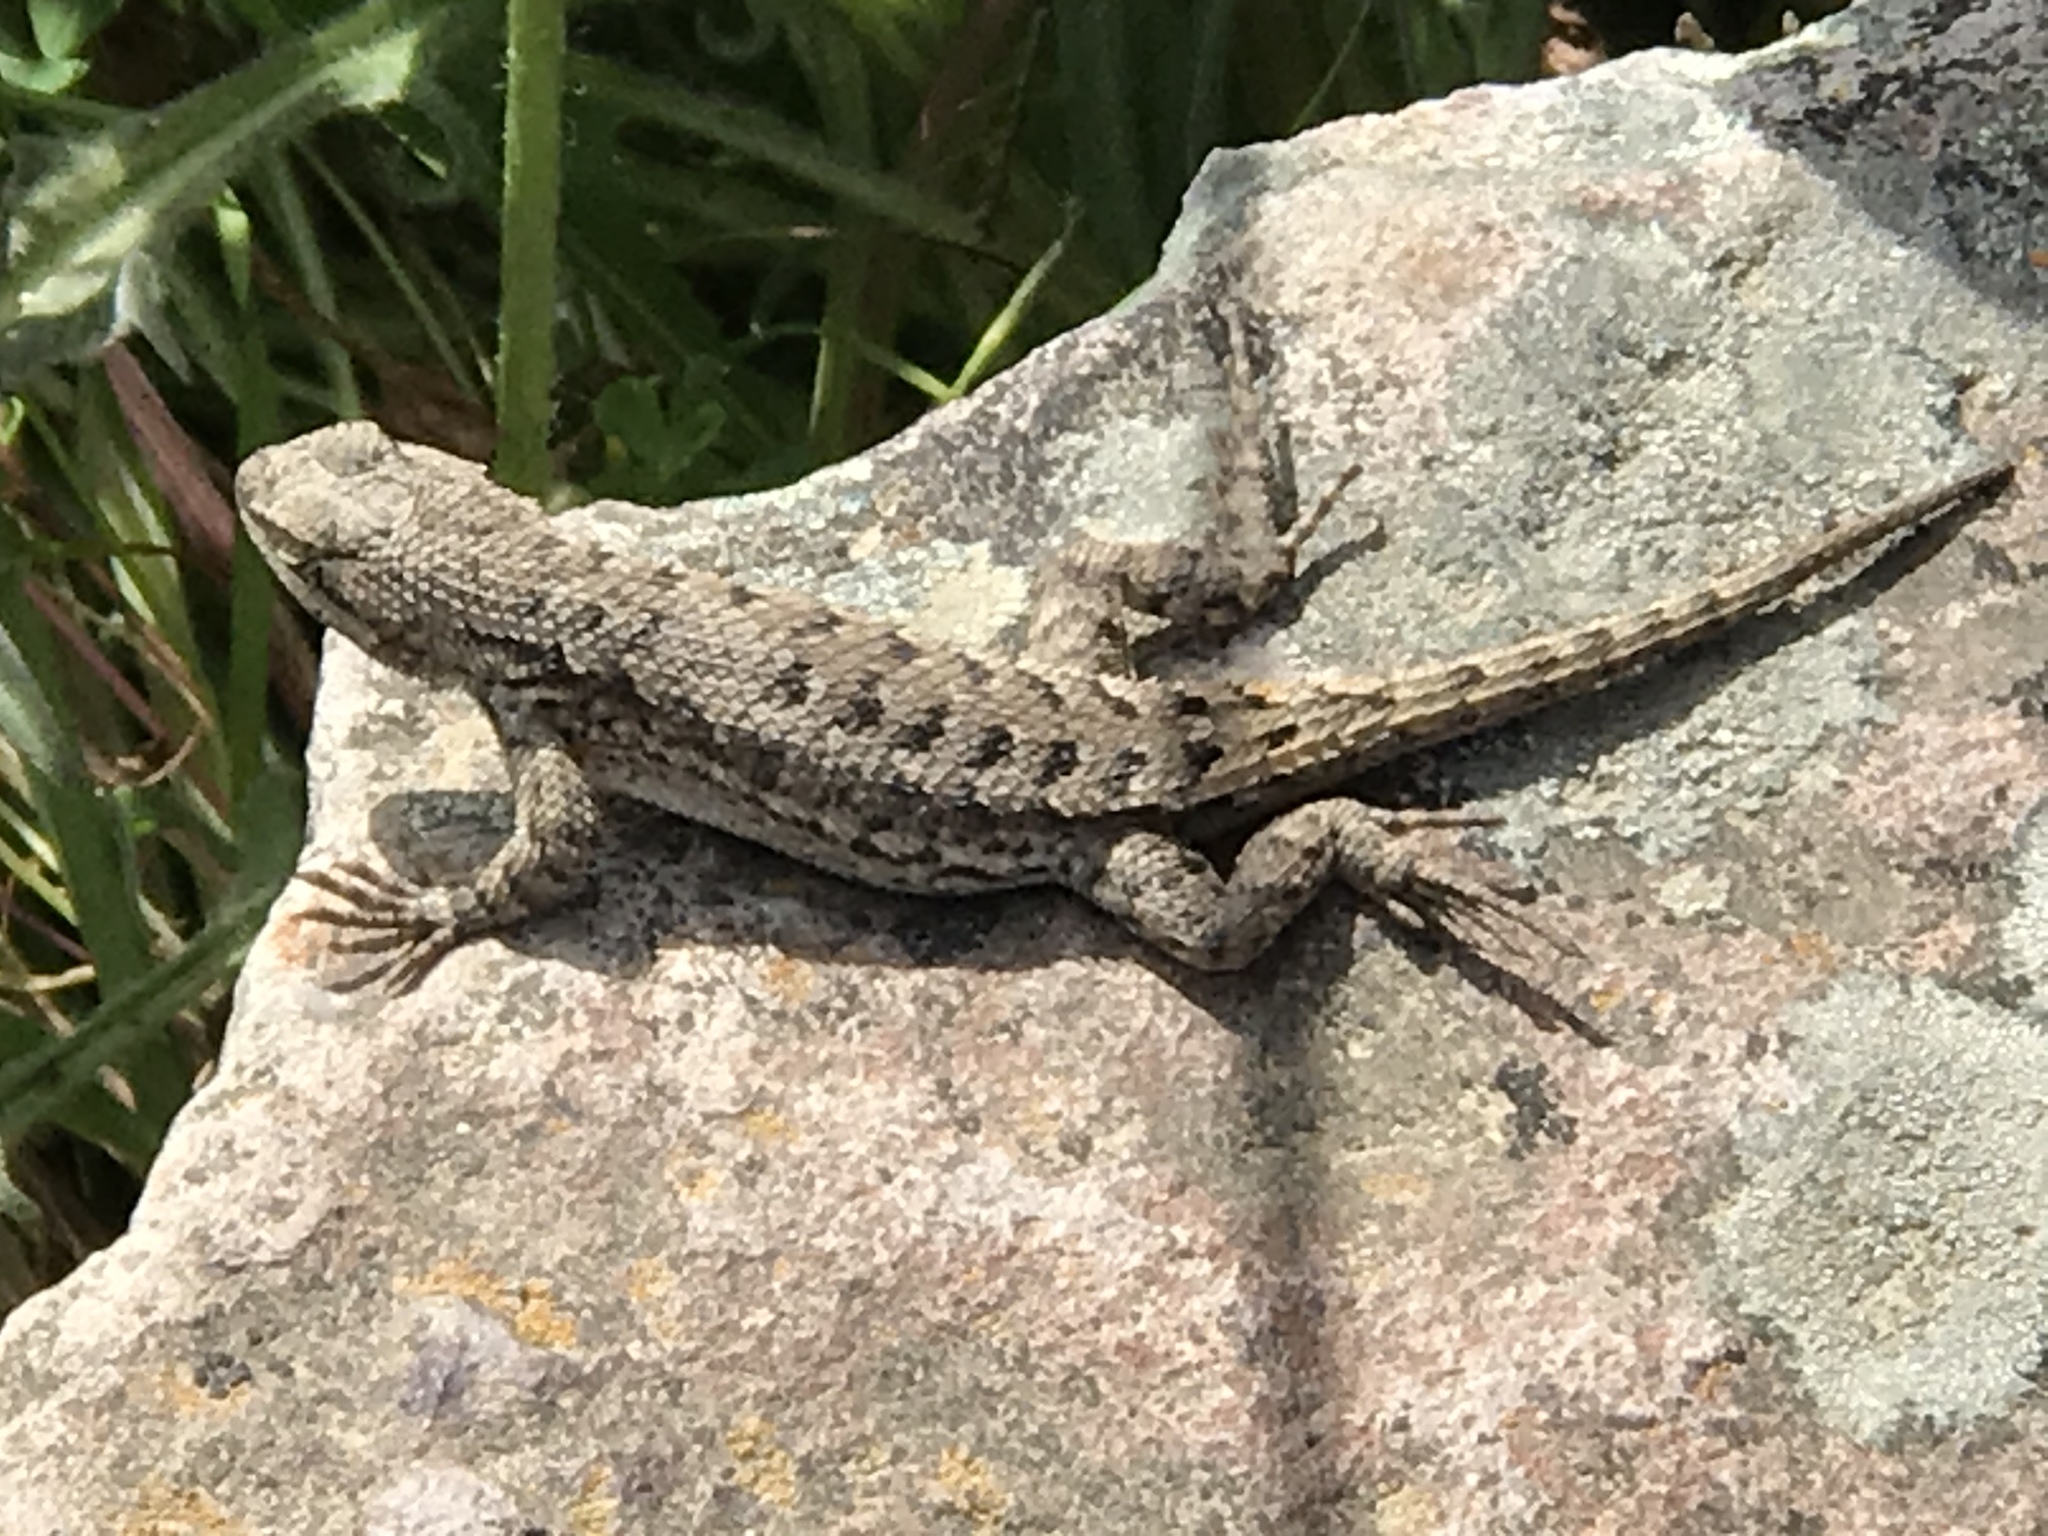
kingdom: Animalia
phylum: Chordata
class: Squamata
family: Phrynosomatidae
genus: Sceloporus
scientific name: Sceloporus occidentalis
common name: Western fence lizard
